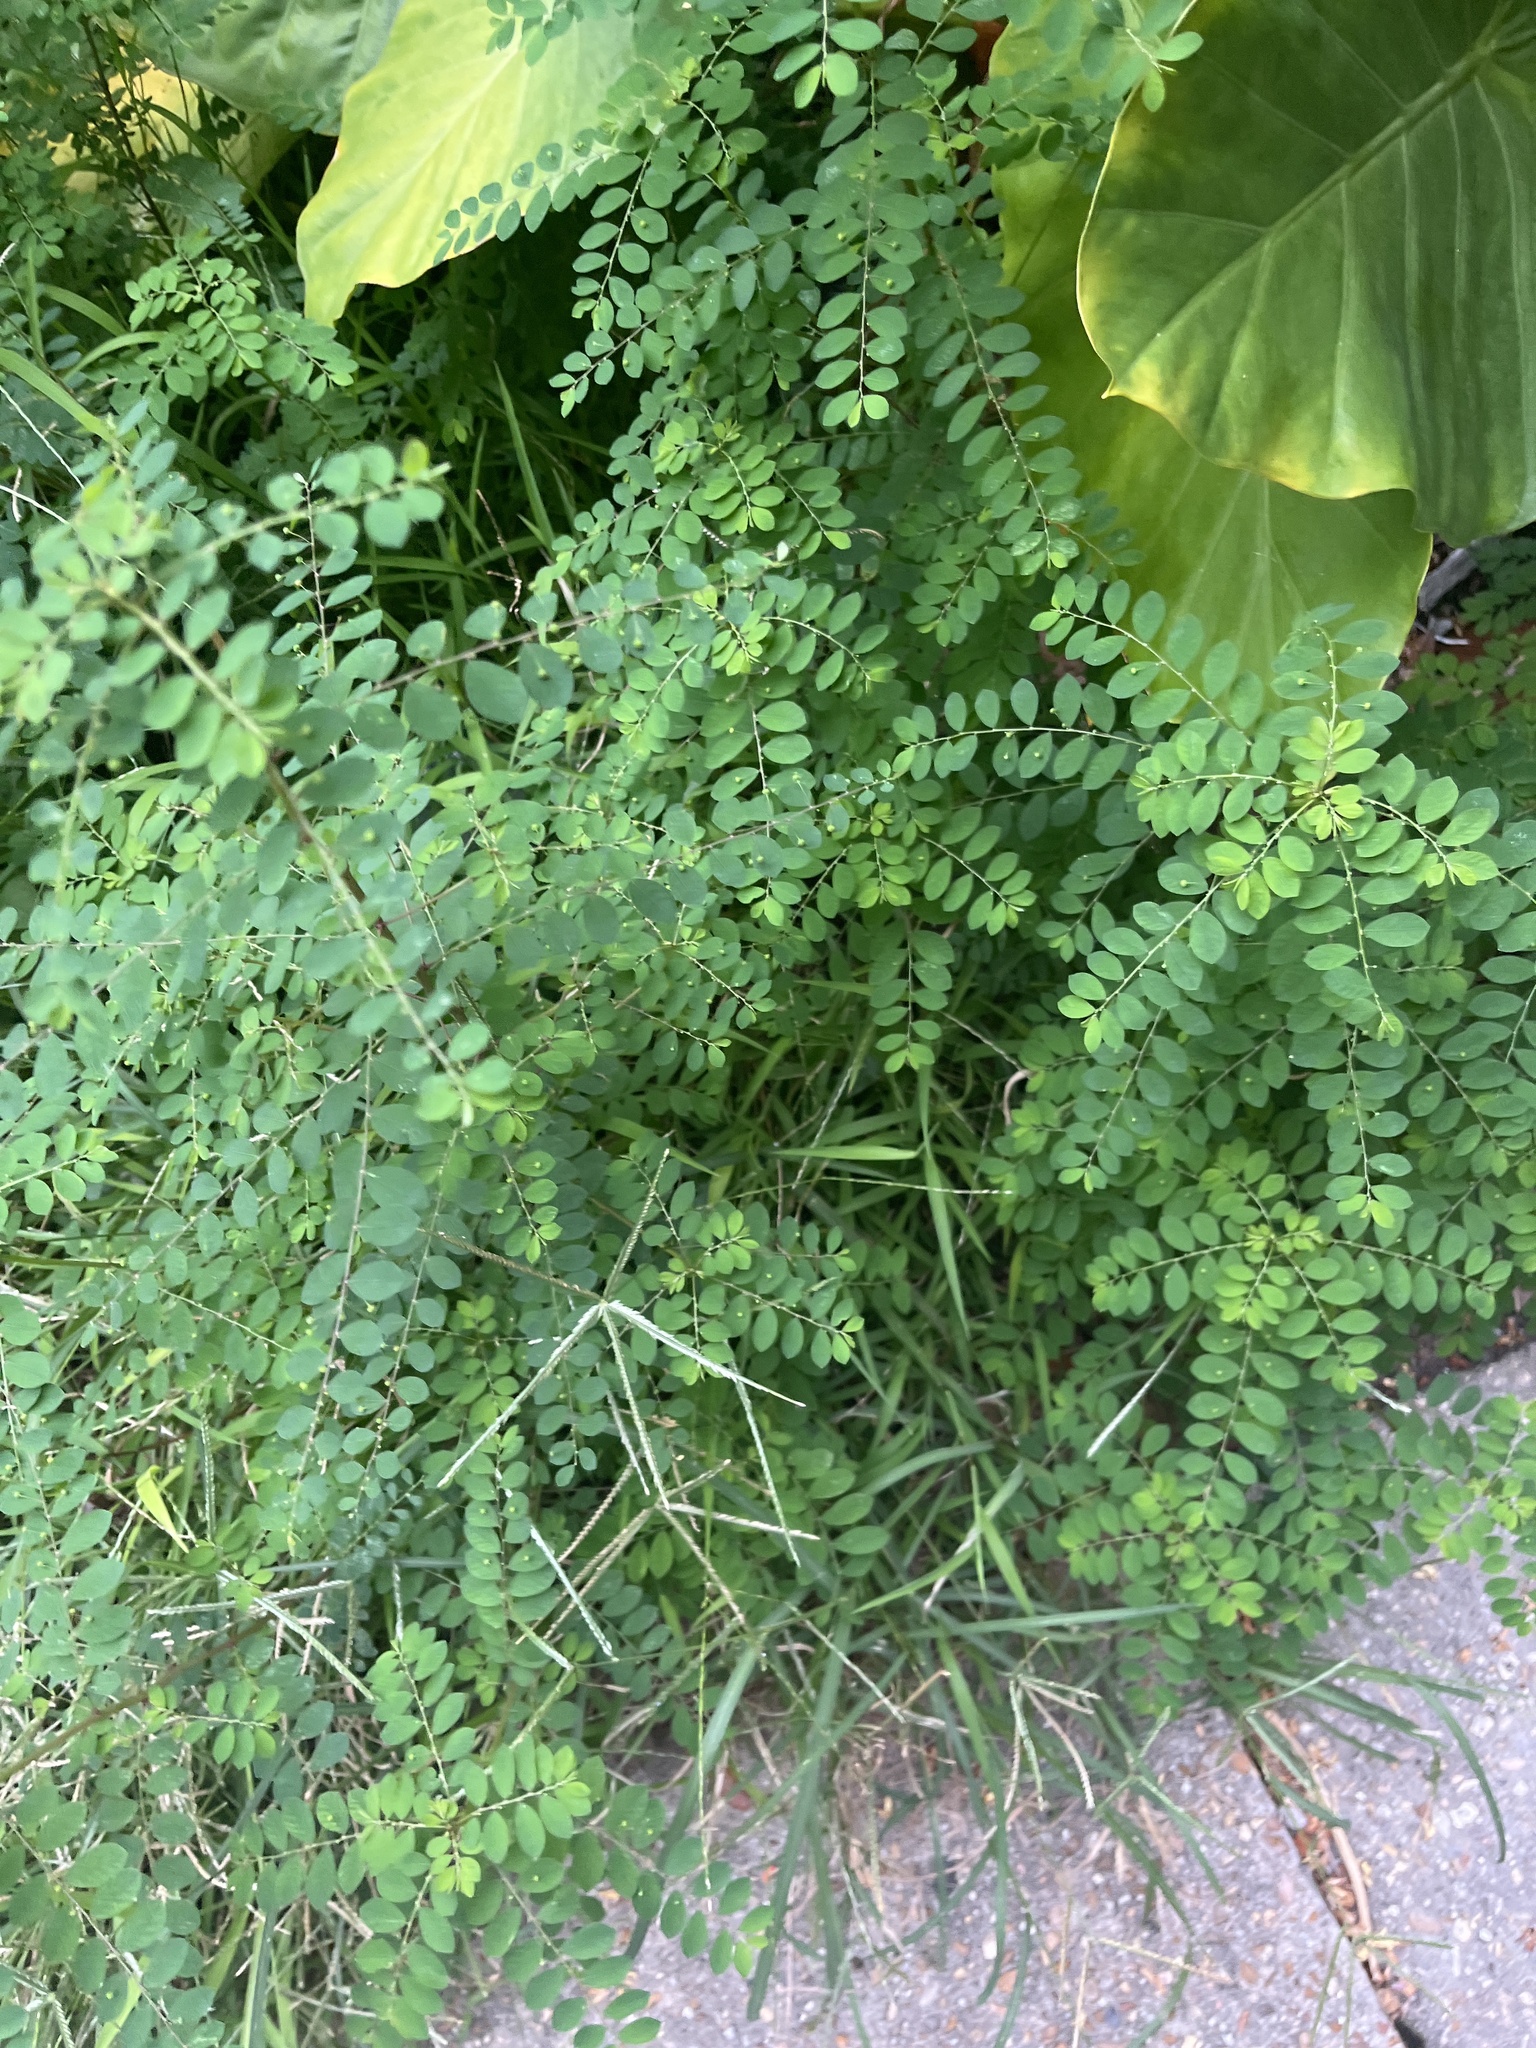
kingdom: Plantae
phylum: Tracheophyta
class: Magnoliopsida
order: Malpighiales
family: Phyllanthaceae
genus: Phyllanthus
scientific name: Phyllanthus tenellus
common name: Mascarene island leaf-flower
